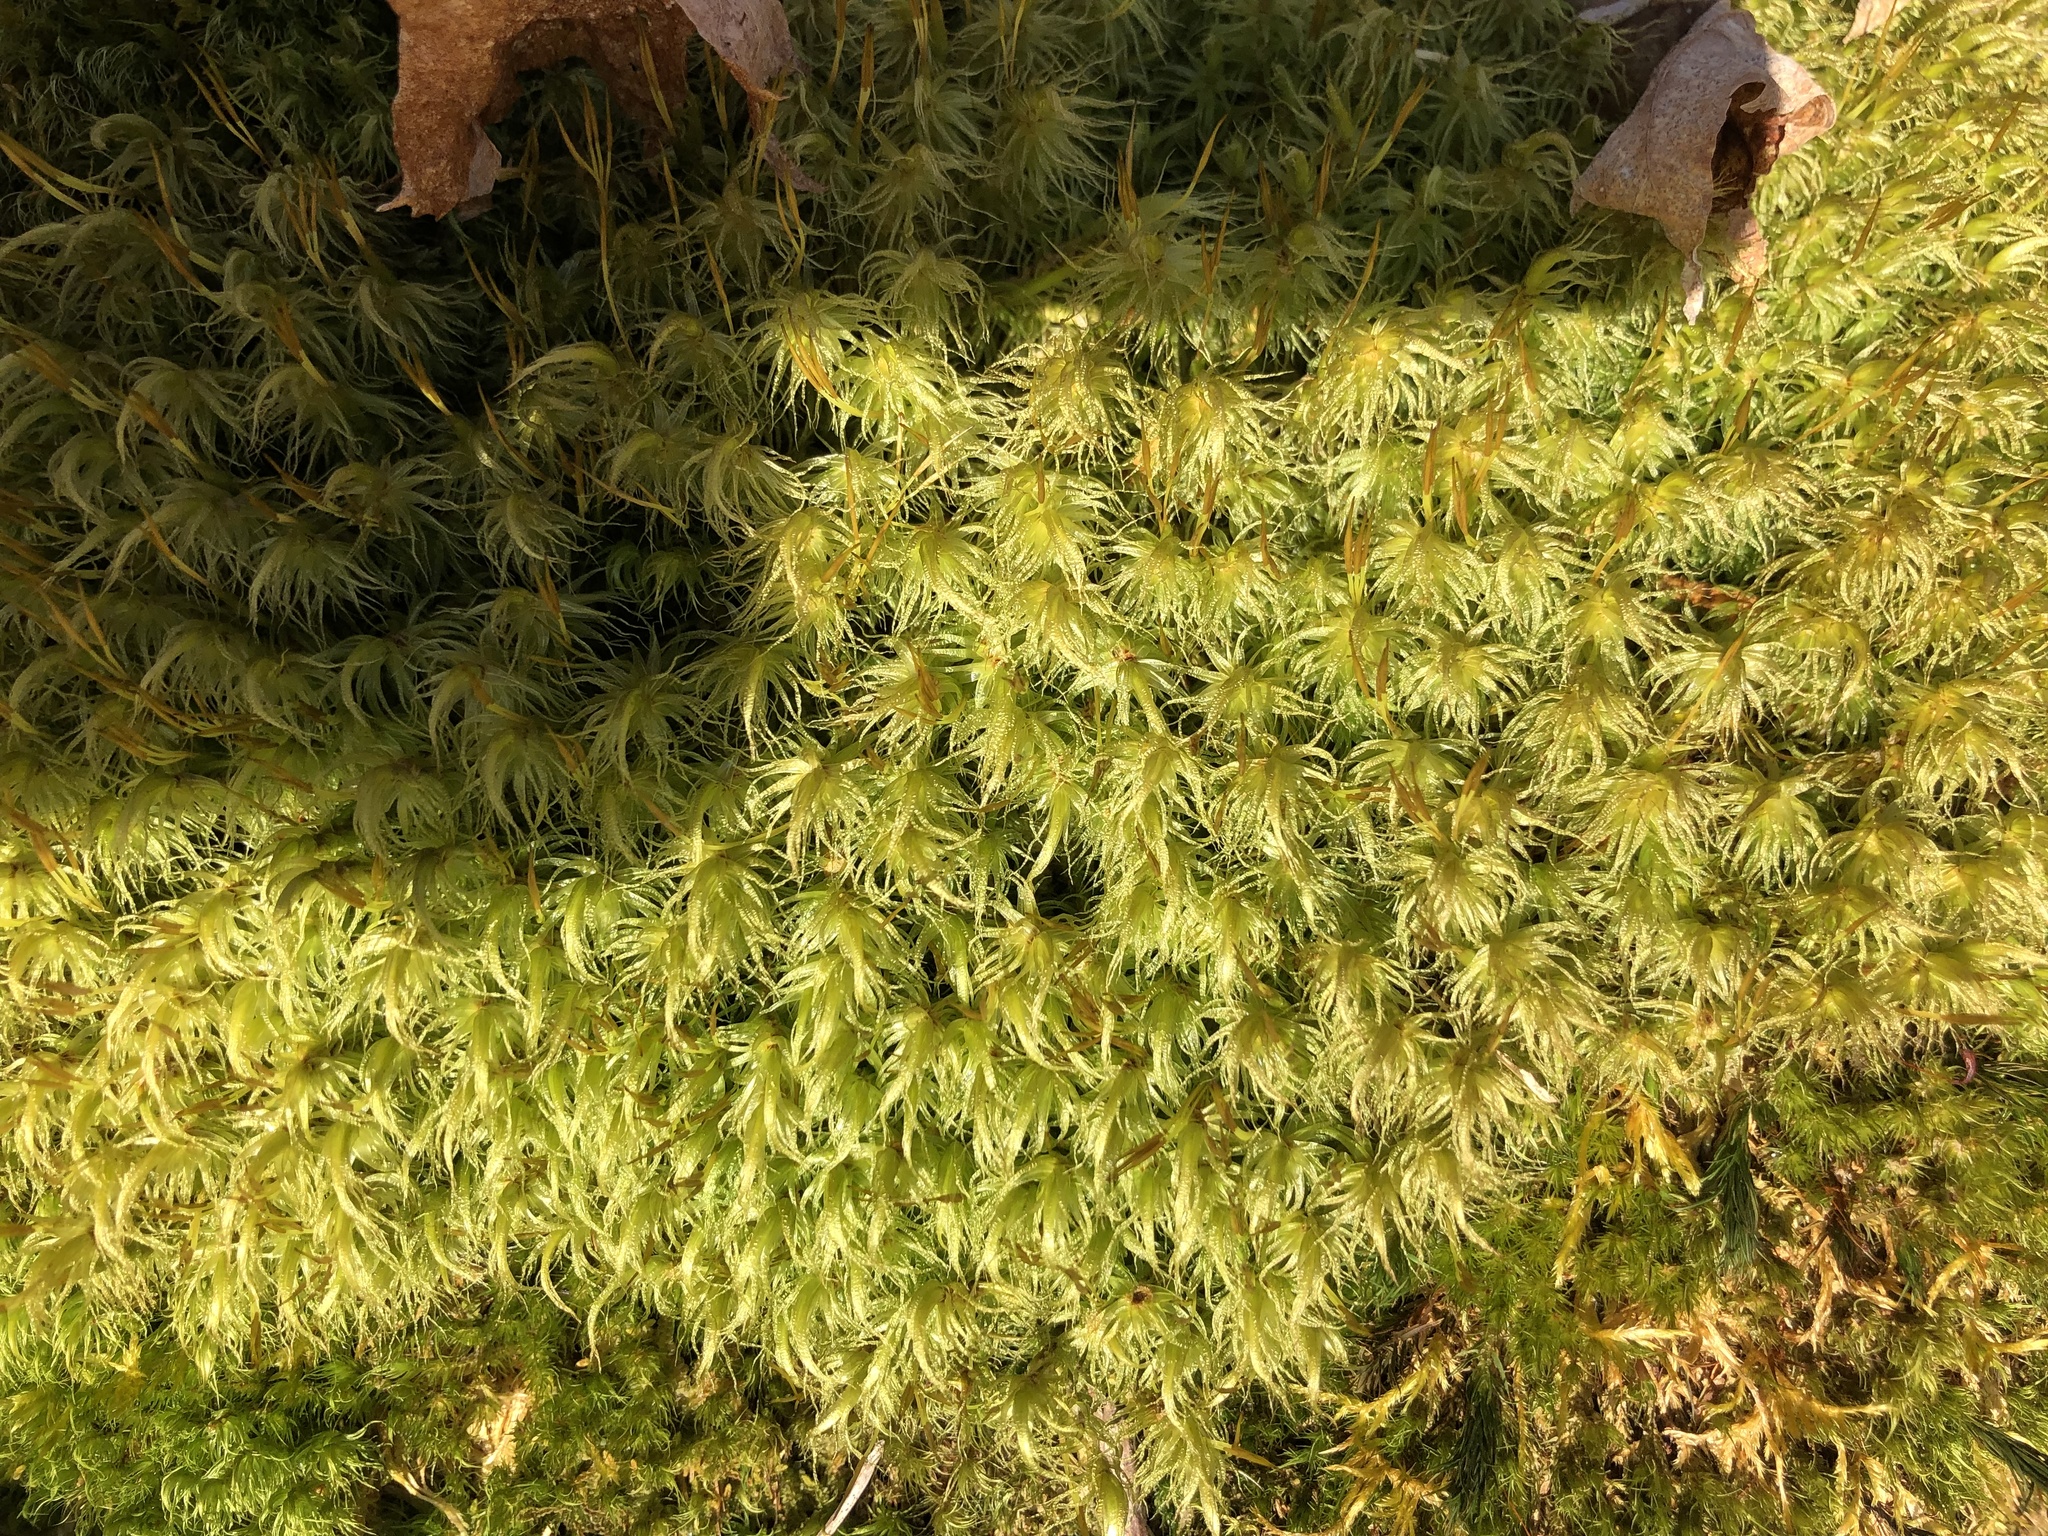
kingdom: Plantae
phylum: Bryophyta
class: Bryopsida
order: Dicranales
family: Dicranaceae
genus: Dicranum
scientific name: Dicranum polysetum
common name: Rugose fork-moss
